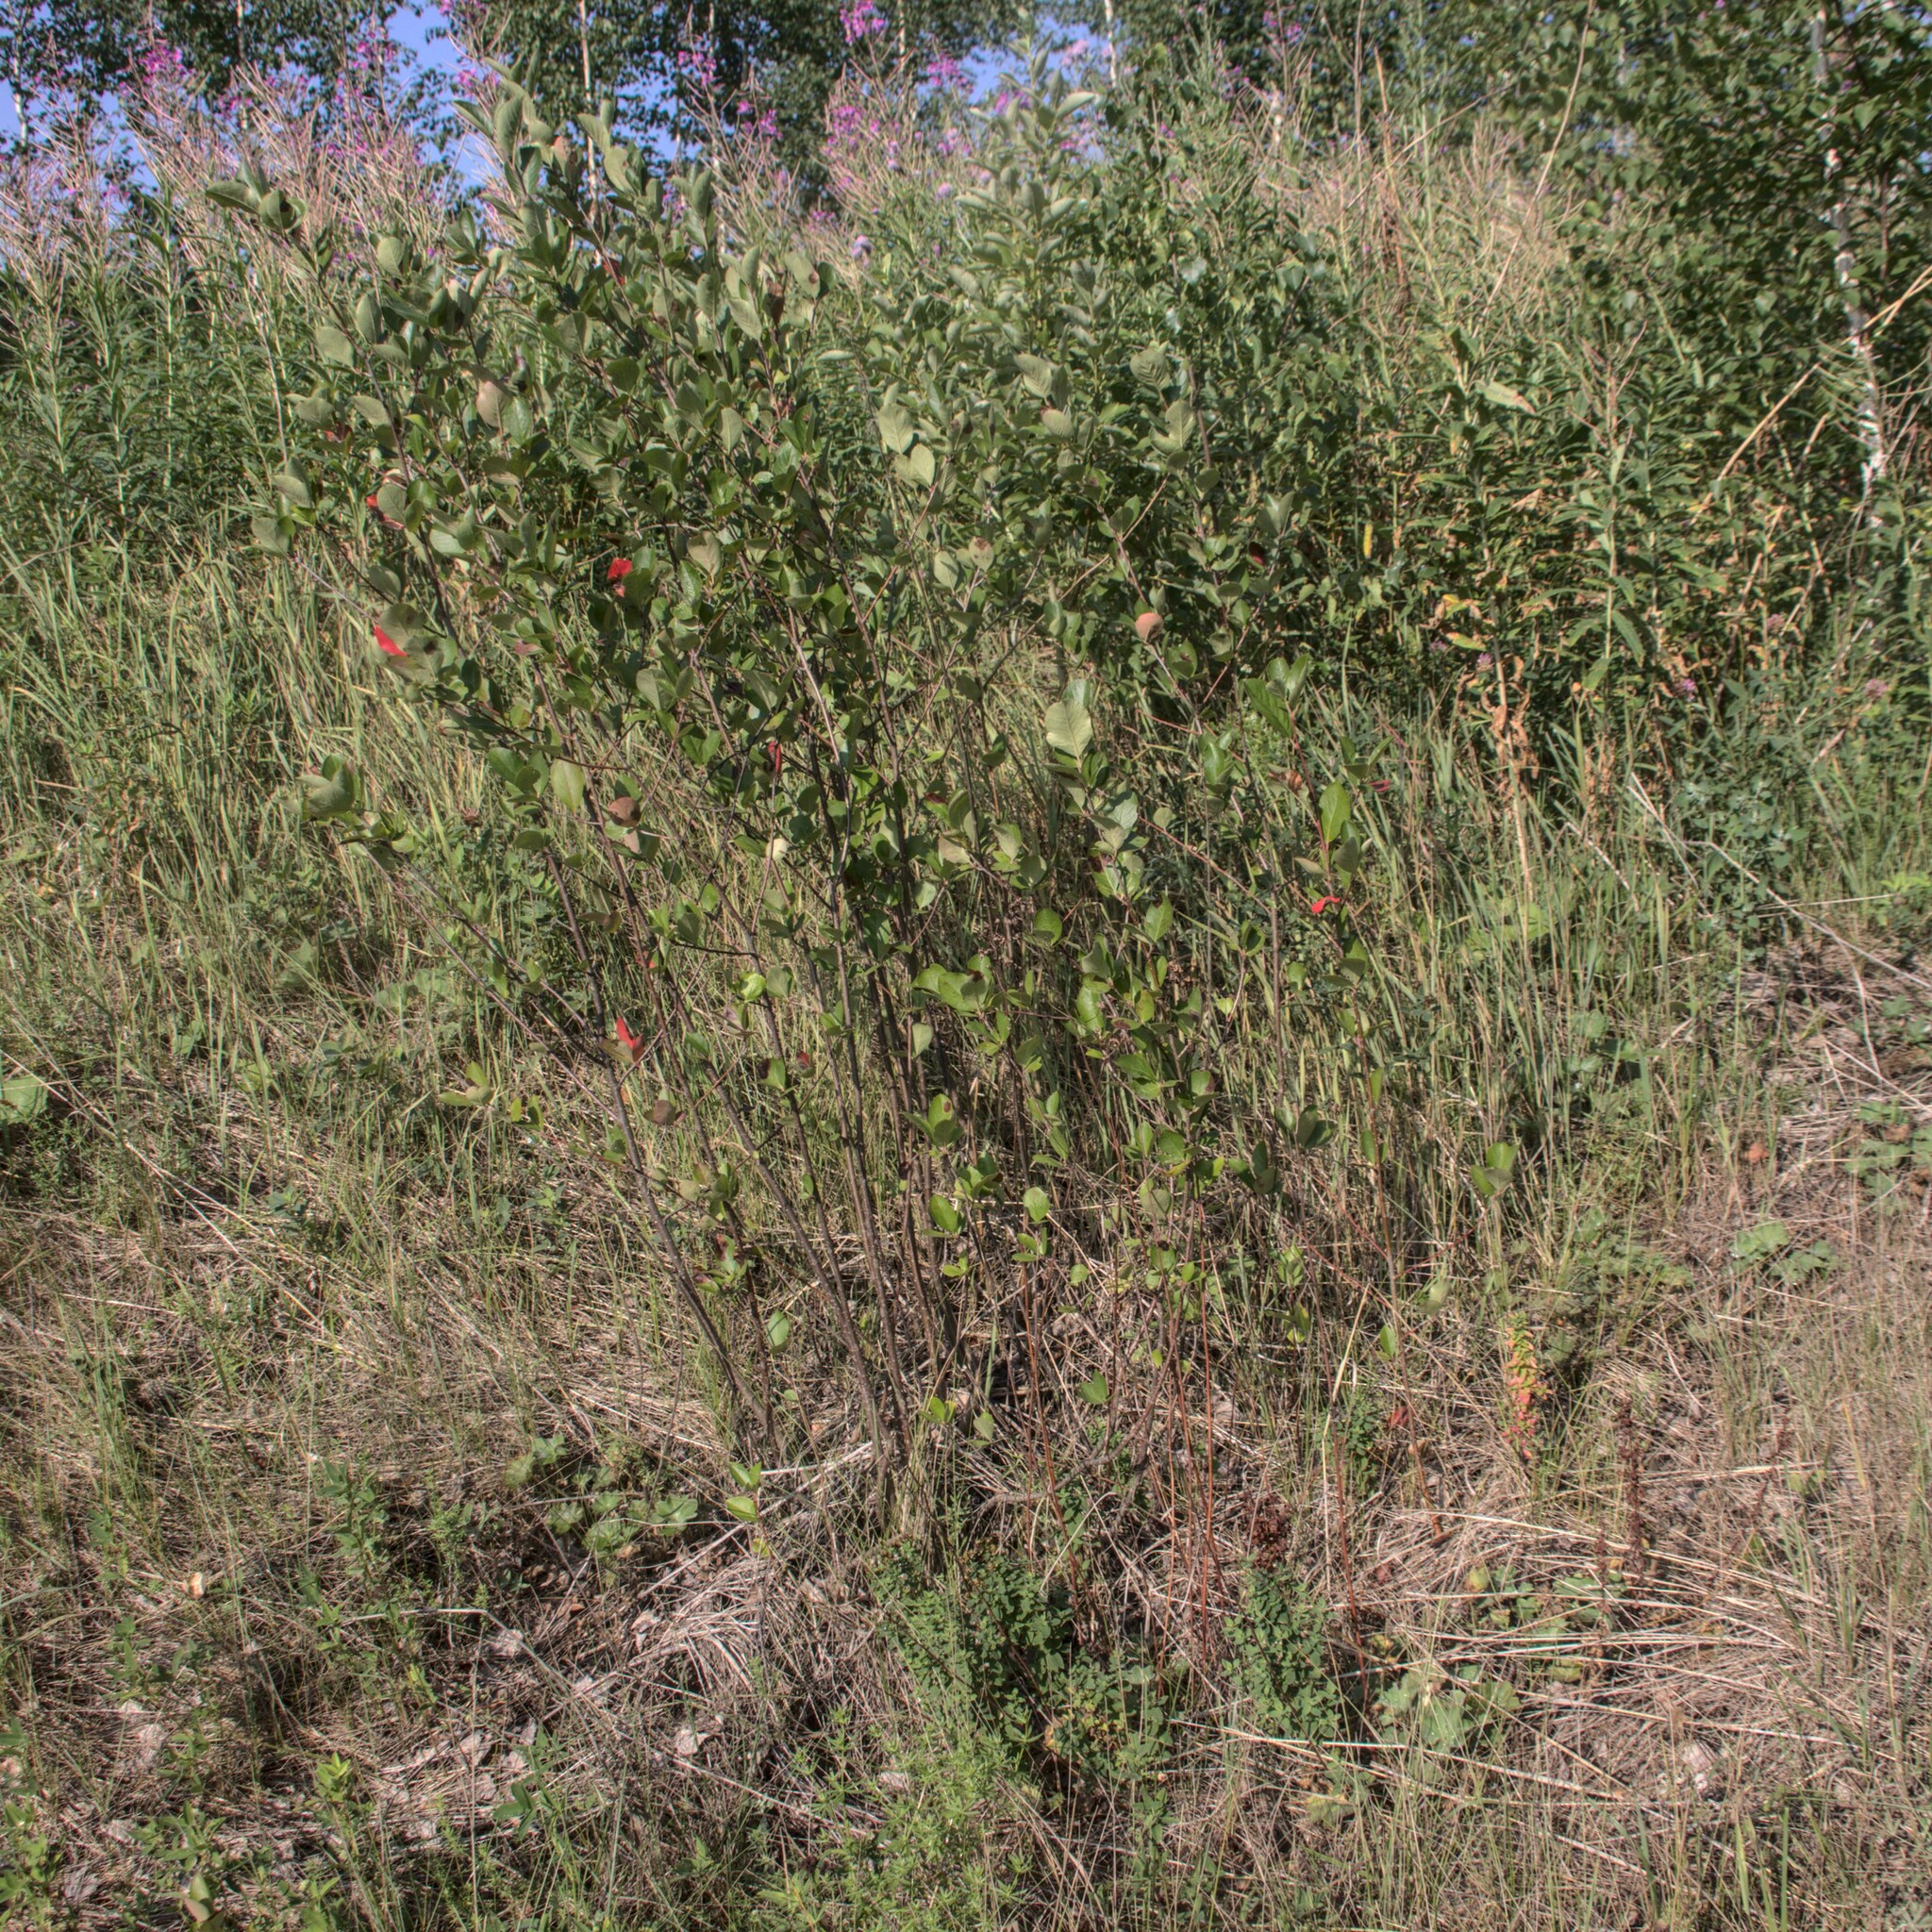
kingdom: Plantae
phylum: Tracheophyta
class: Magnoliopsida
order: Rosales
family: Rosaceae
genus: Sorbaronia
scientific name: Sorbaronia arsenii
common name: Arsène's mountain-ash
